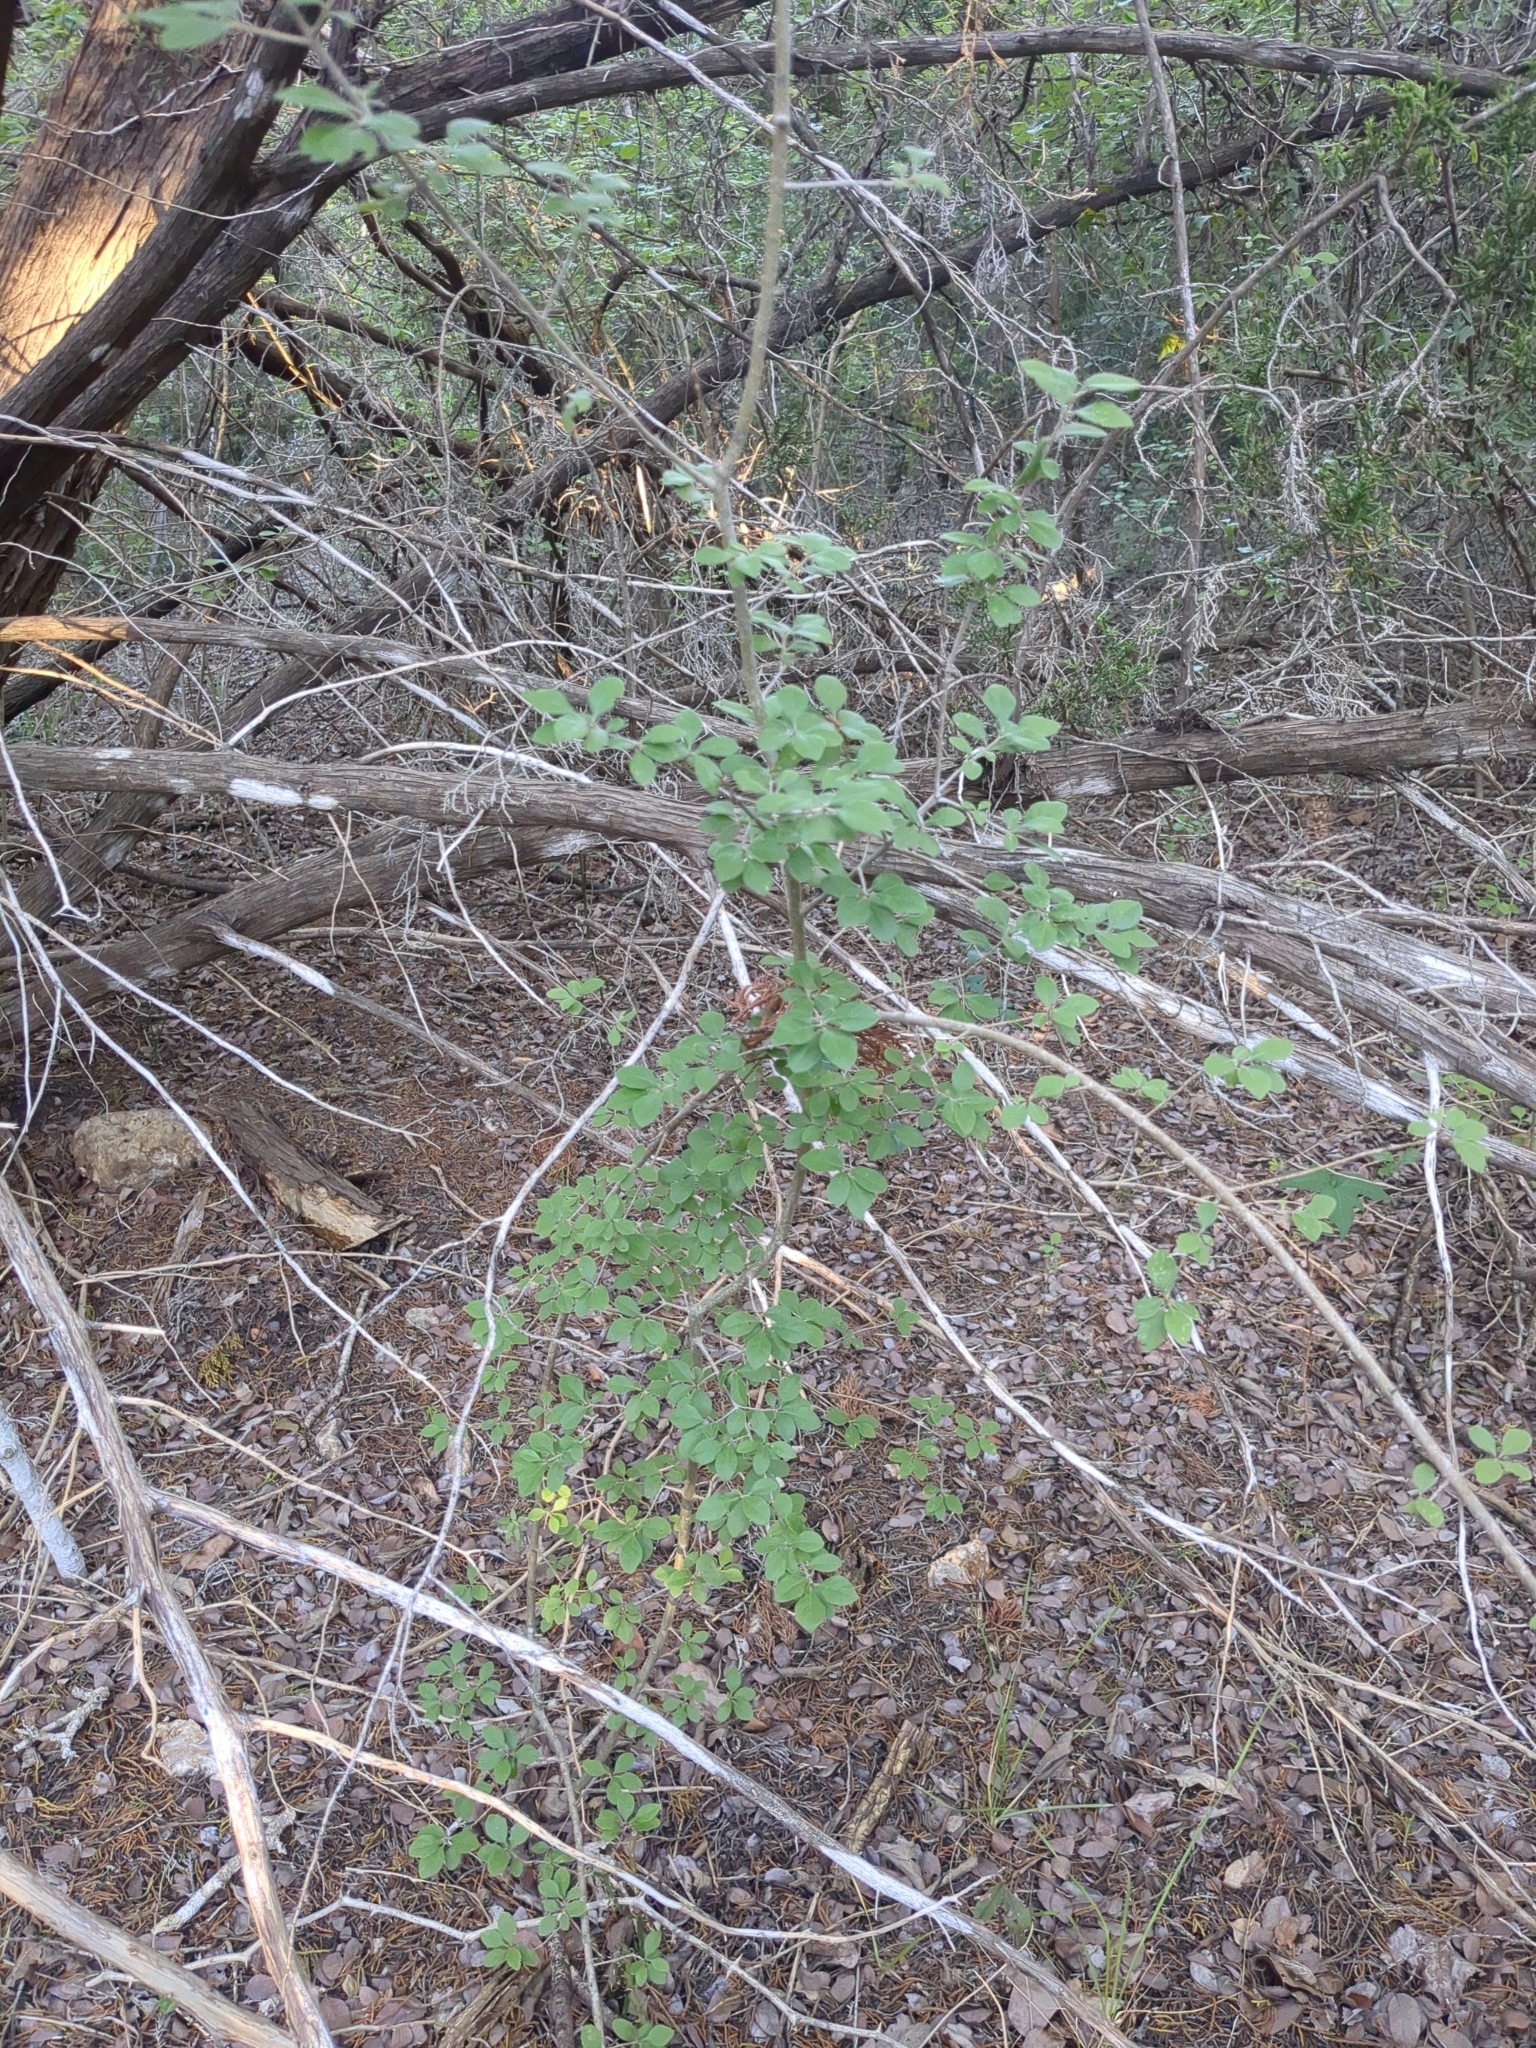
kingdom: Plantae
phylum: Tracheophyta
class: Magnoliopsida
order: Lamiales
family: Oleaceae
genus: Forestiera
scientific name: Forestiera pubescens
